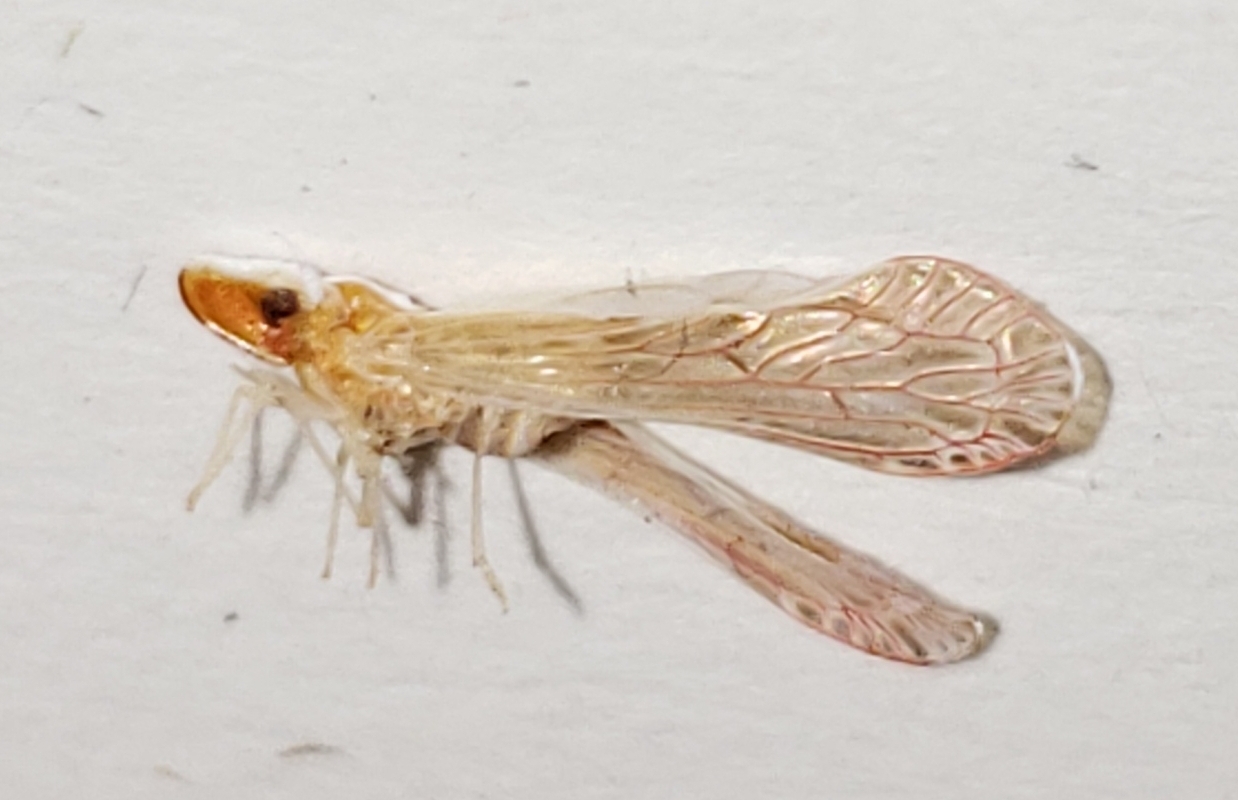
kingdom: Animalia
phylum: Arthropoda
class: Insecta
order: Hemiptera
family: Derbidae
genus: Shellenius
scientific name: Shellenius schellenbergii
